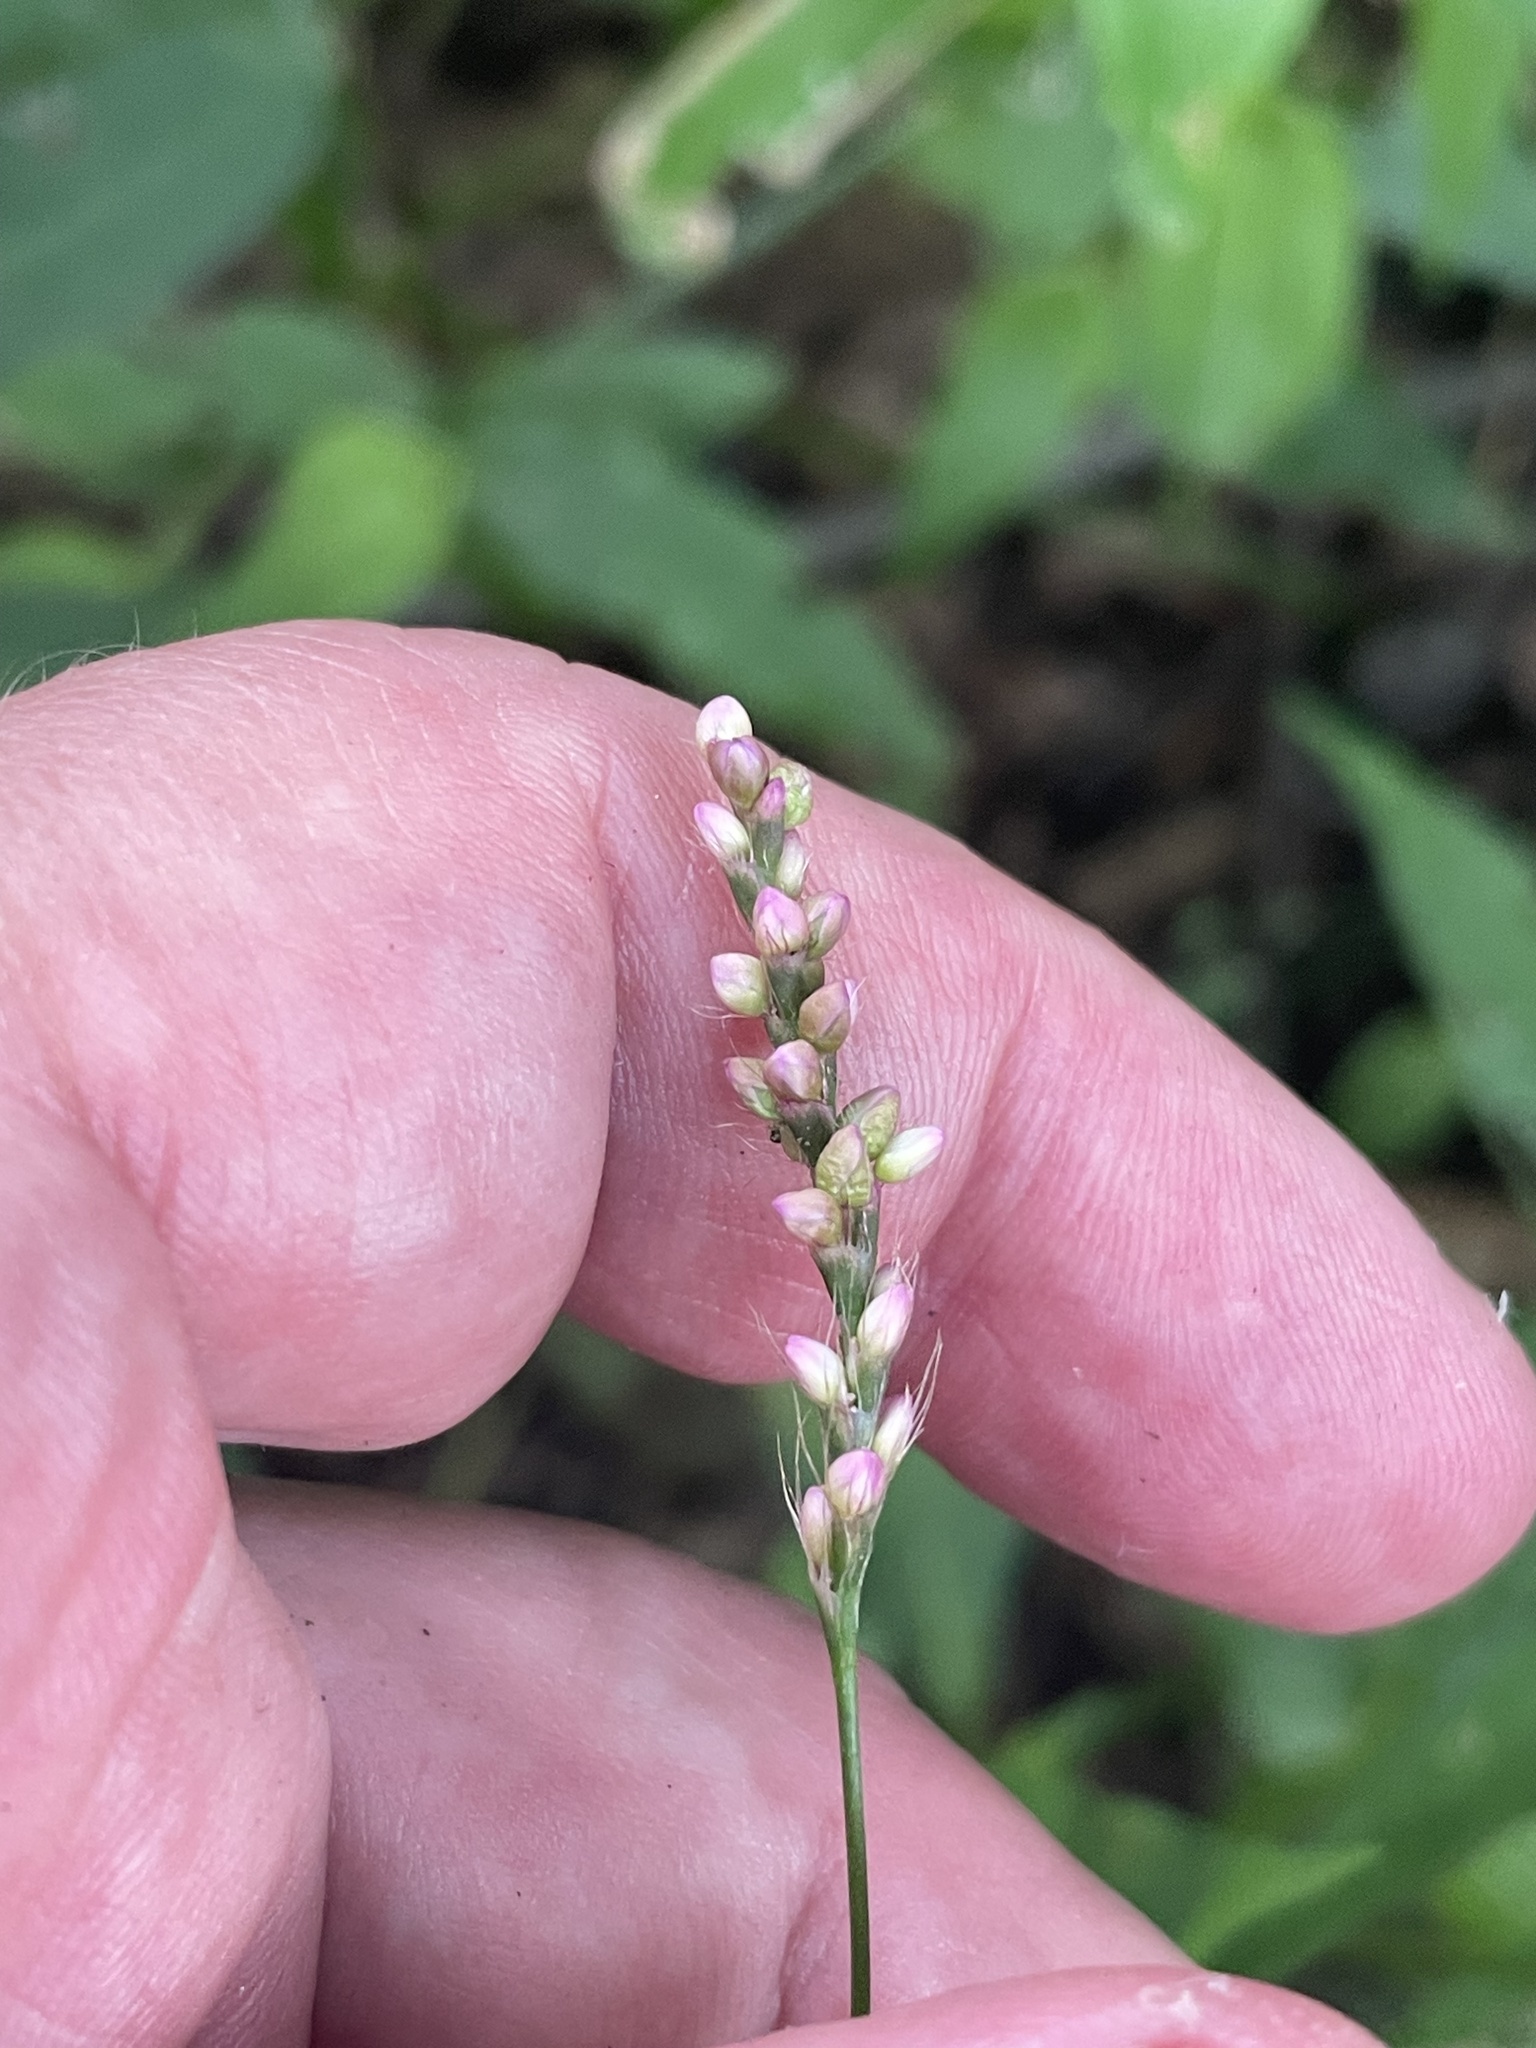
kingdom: Plantae
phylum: Tracheophyta
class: Magnoliopsida
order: Caryophyllales
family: Polygonaceae
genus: Persicaria
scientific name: Persicaria longiseta
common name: Bristly lady's-thumb
